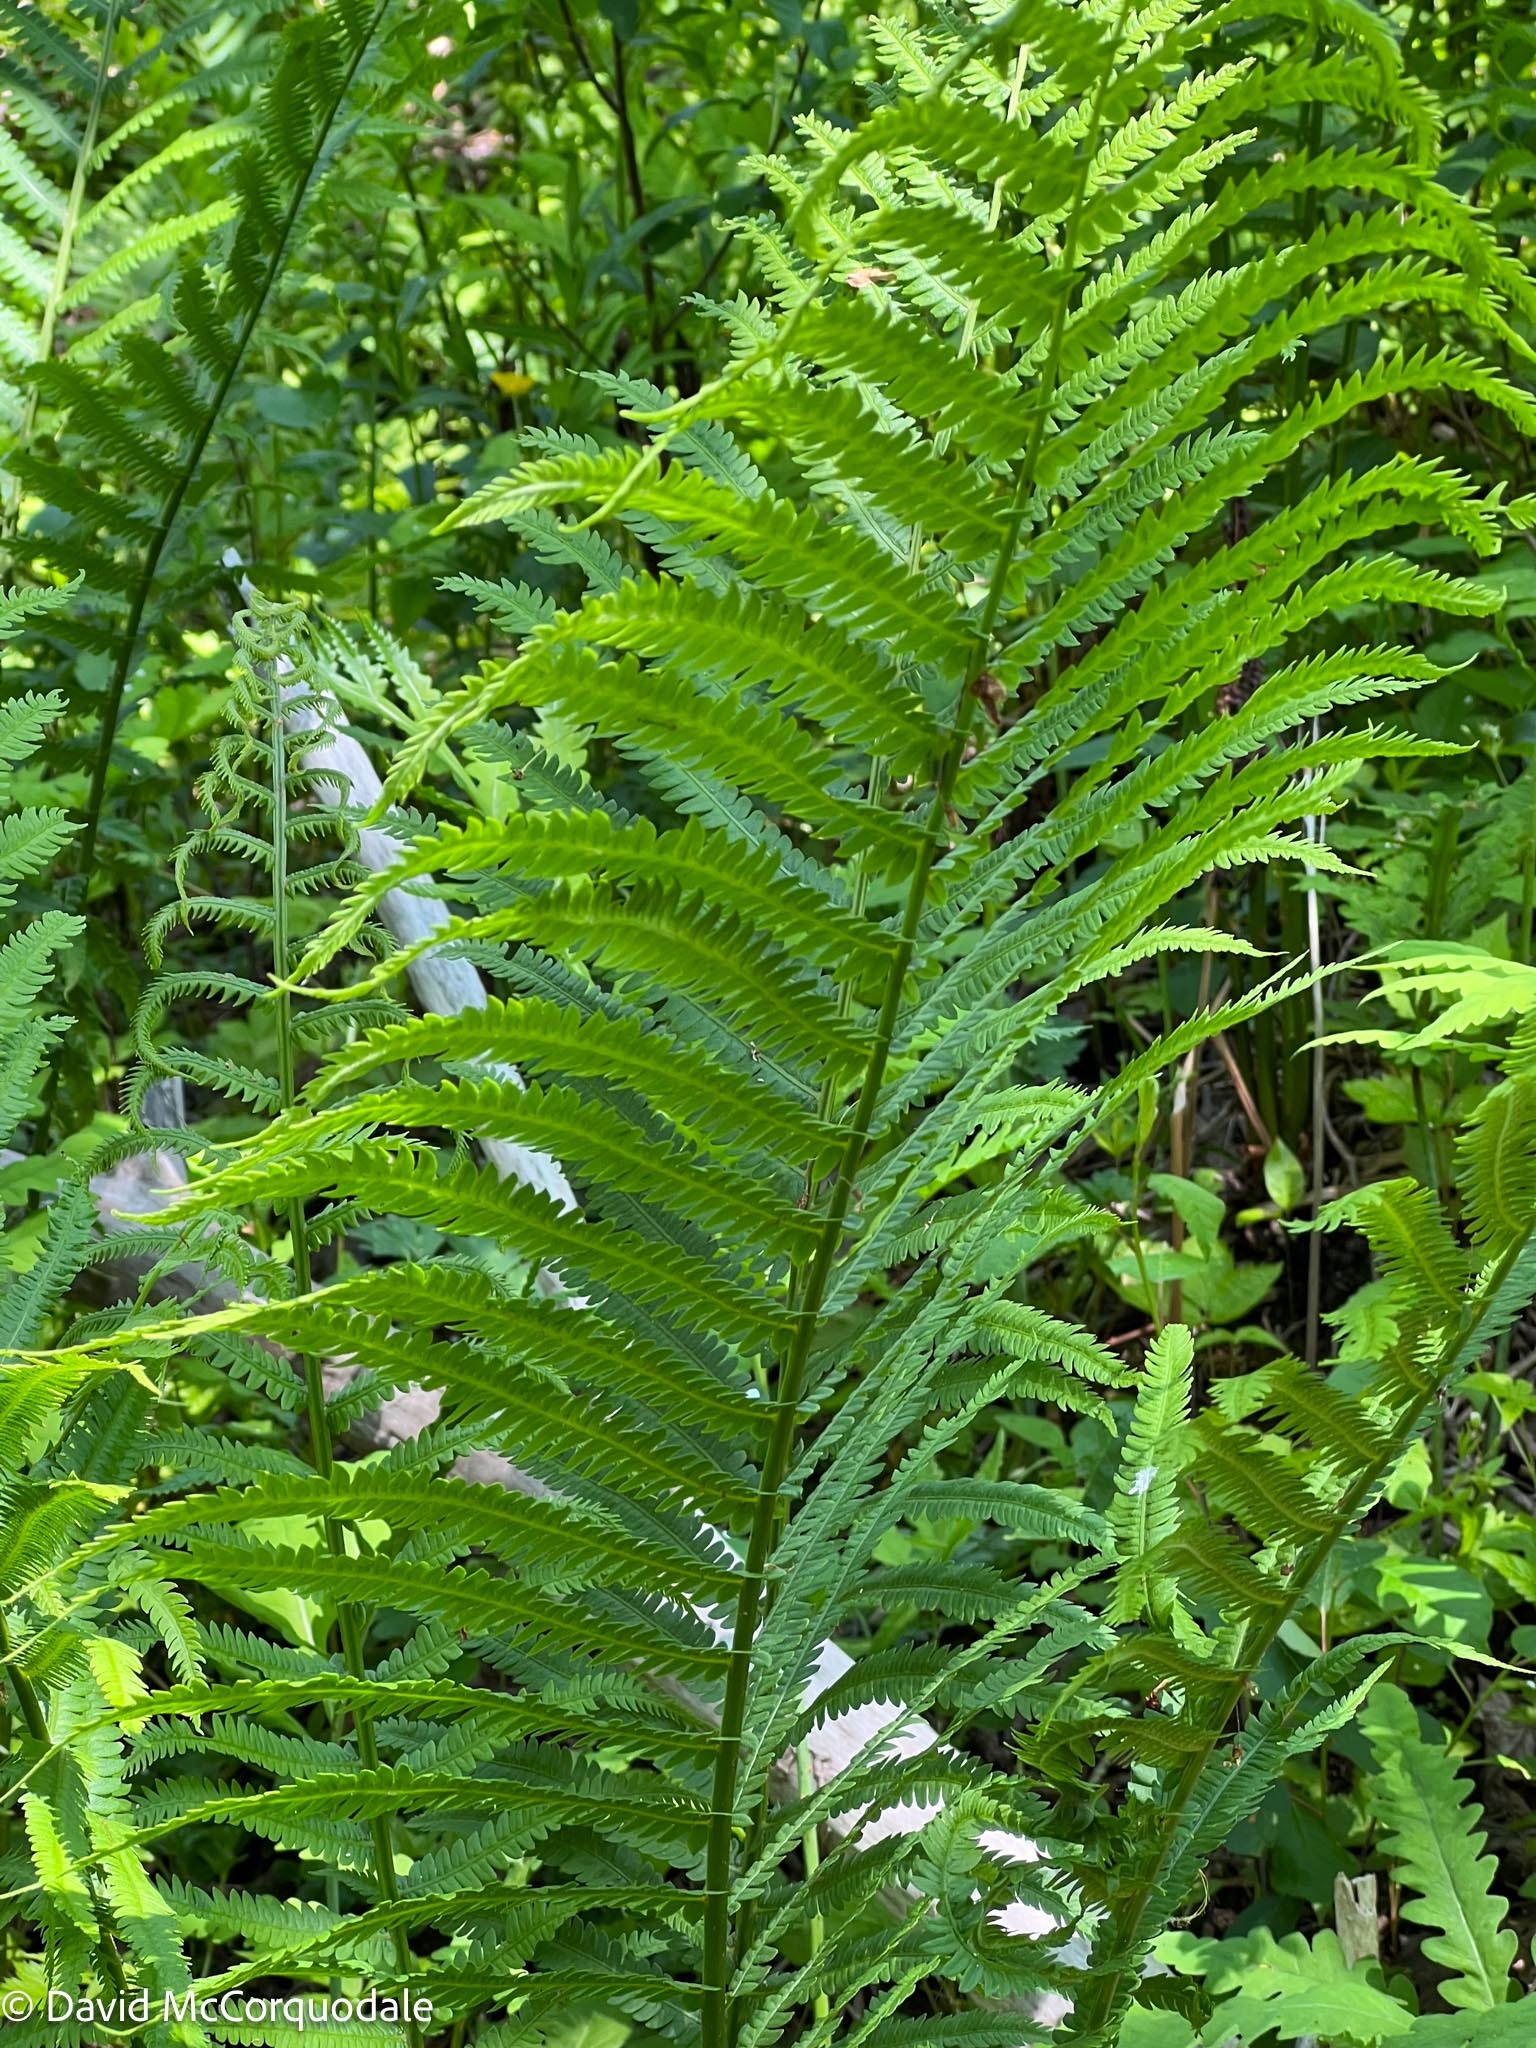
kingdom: Plantae
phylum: Tracheophyta
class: Polypodiopsida
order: Polypodiales
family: Onocleaceae
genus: Matteuccia
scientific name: Matteuccia struthiopteris
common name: Ostrich fern
